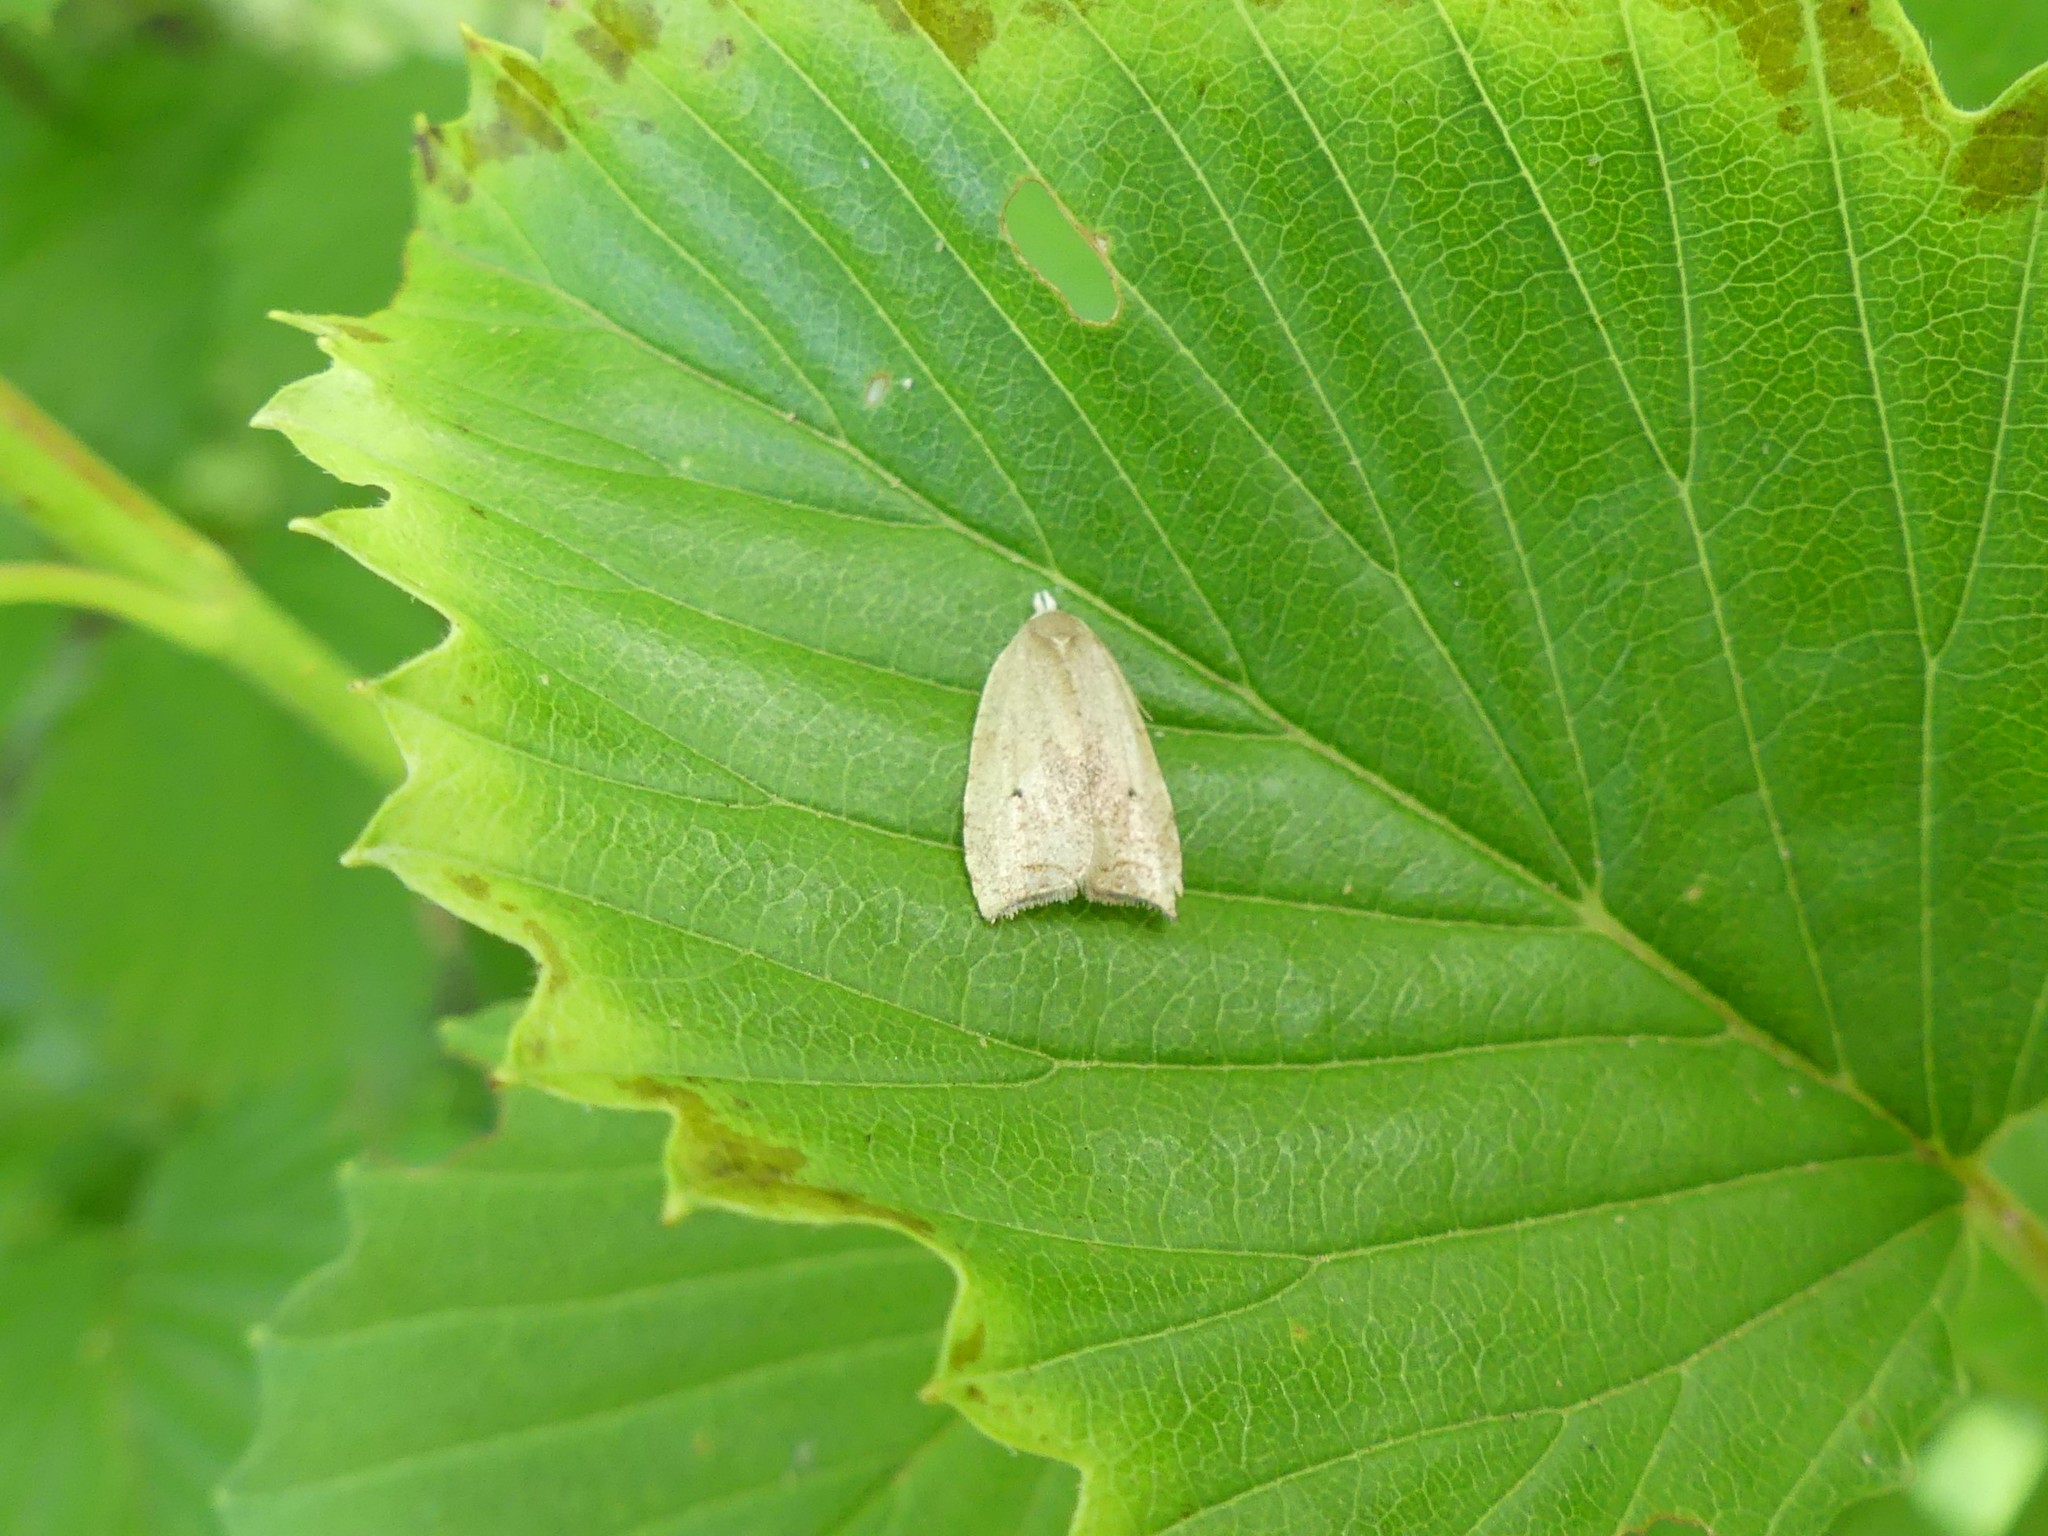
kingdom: Animalia
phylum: Arthropoda
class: Insecta
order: Lepidoptera
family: Tortricidae
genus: Coelostathma
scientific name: Coelostathma discopunctana
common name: Batman moth
